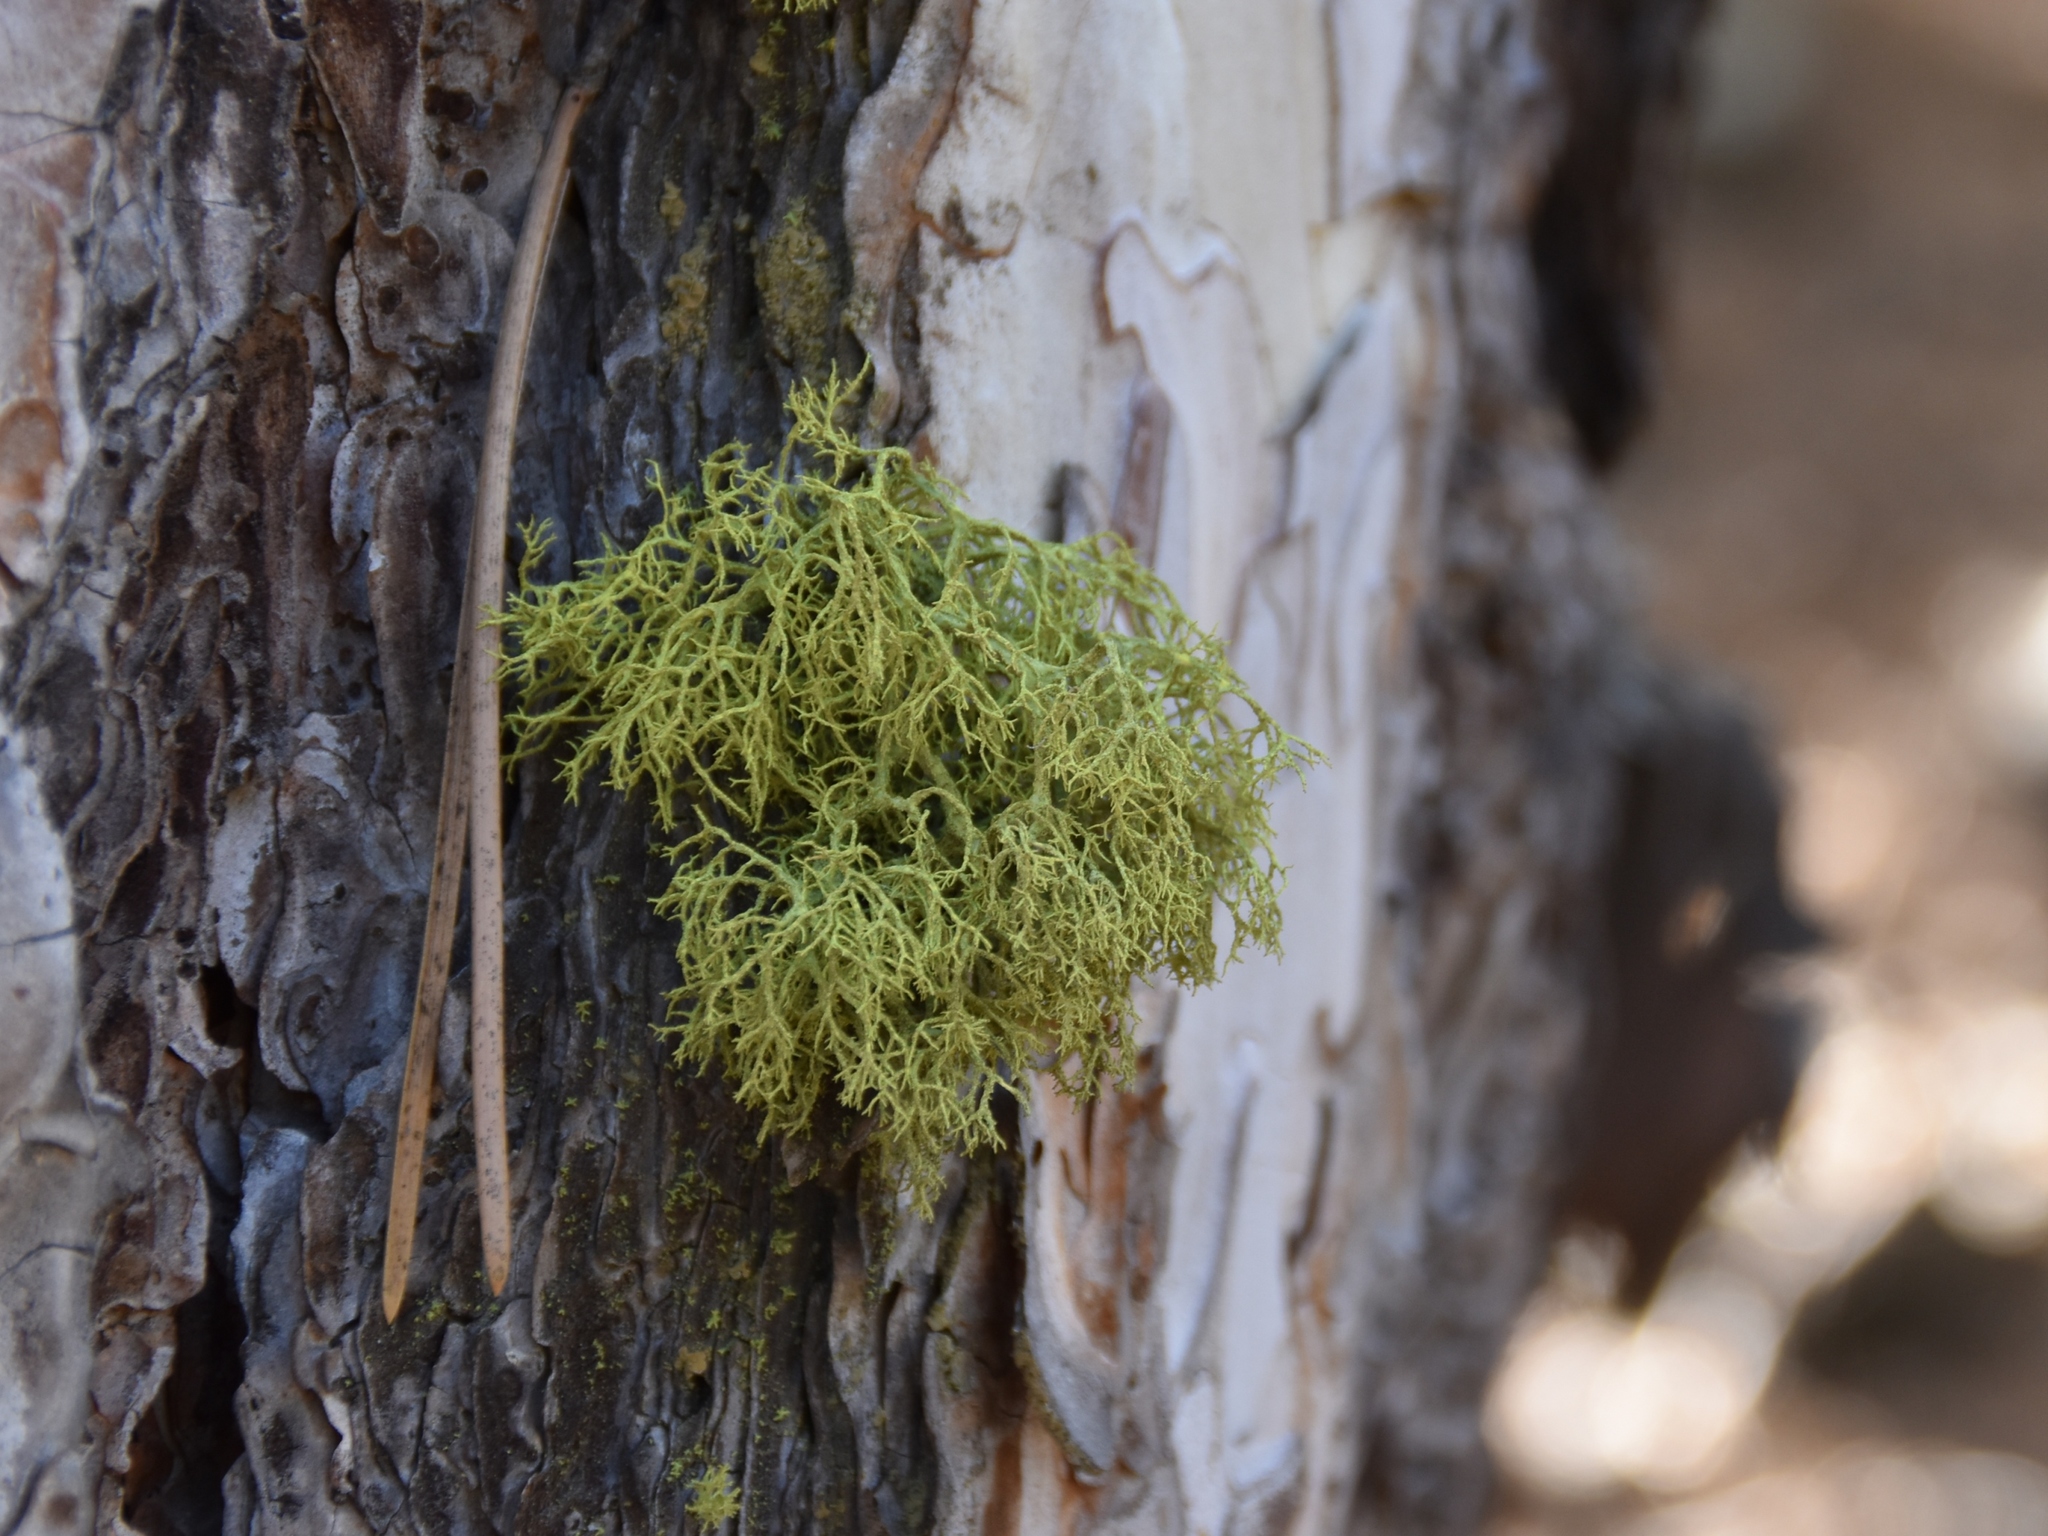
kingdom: Fungi
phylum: Ascomycota
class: Lecanoromycetes
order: Lecanorales
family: Parmeliaceae
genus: Letharia
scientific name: Letharia vulpina
